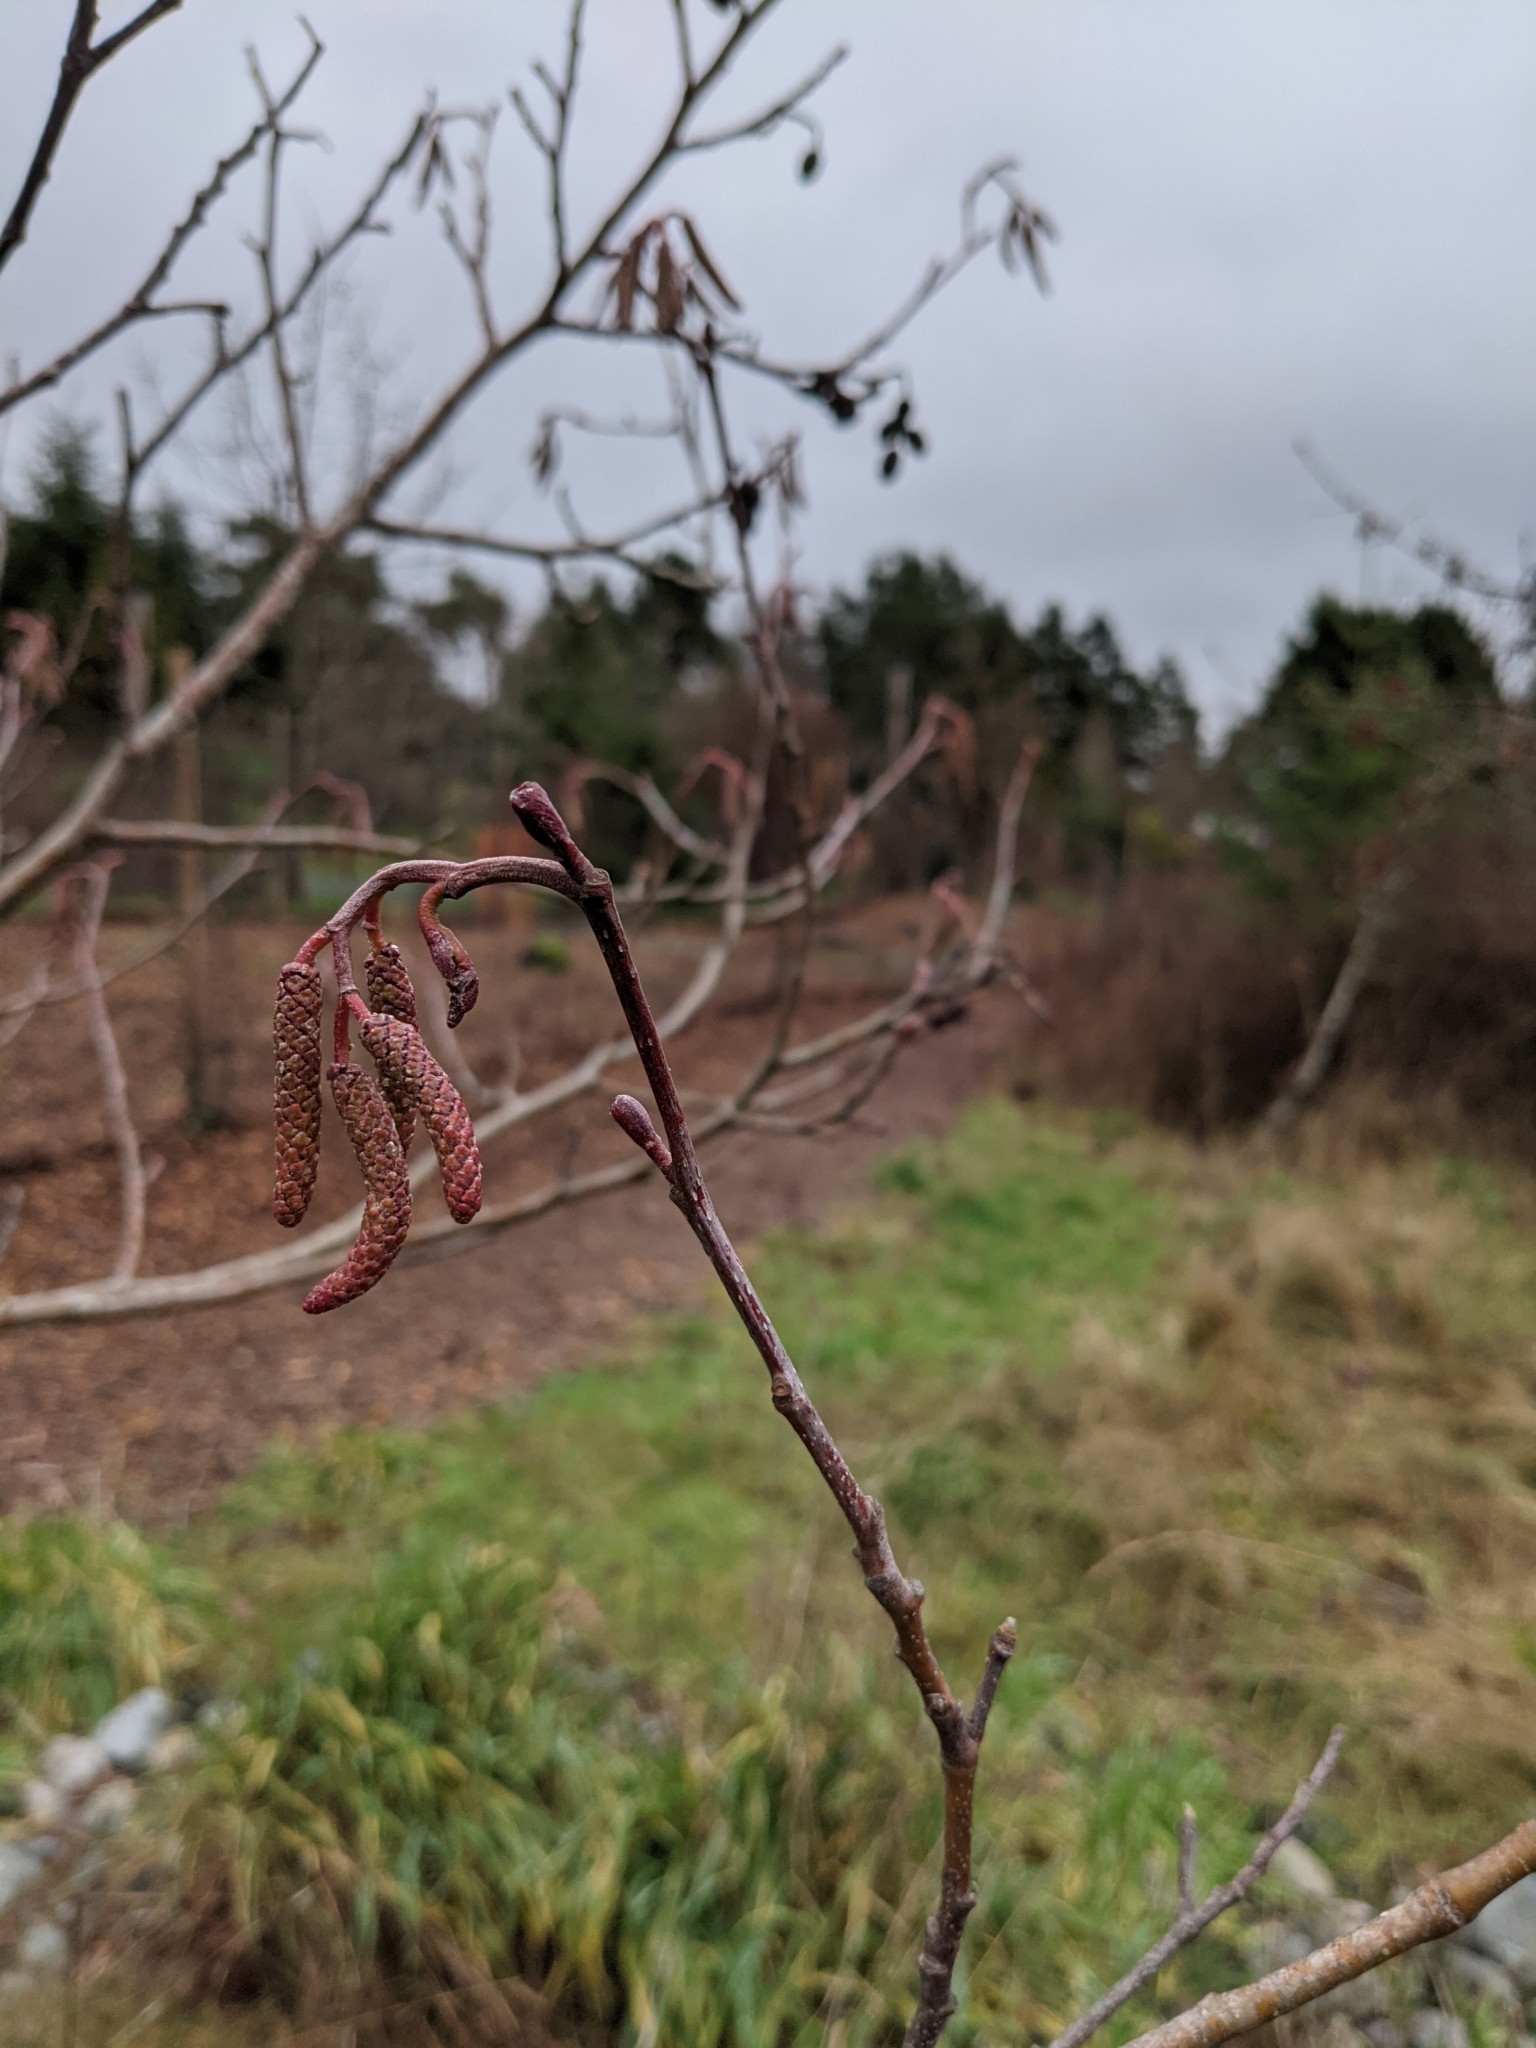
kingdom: Plantae
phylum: Tracheophyta
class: Magnoliopsida
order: Fagales
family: Betulaceae
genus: Alnus
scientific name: Alnus rubra
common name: Red alder
